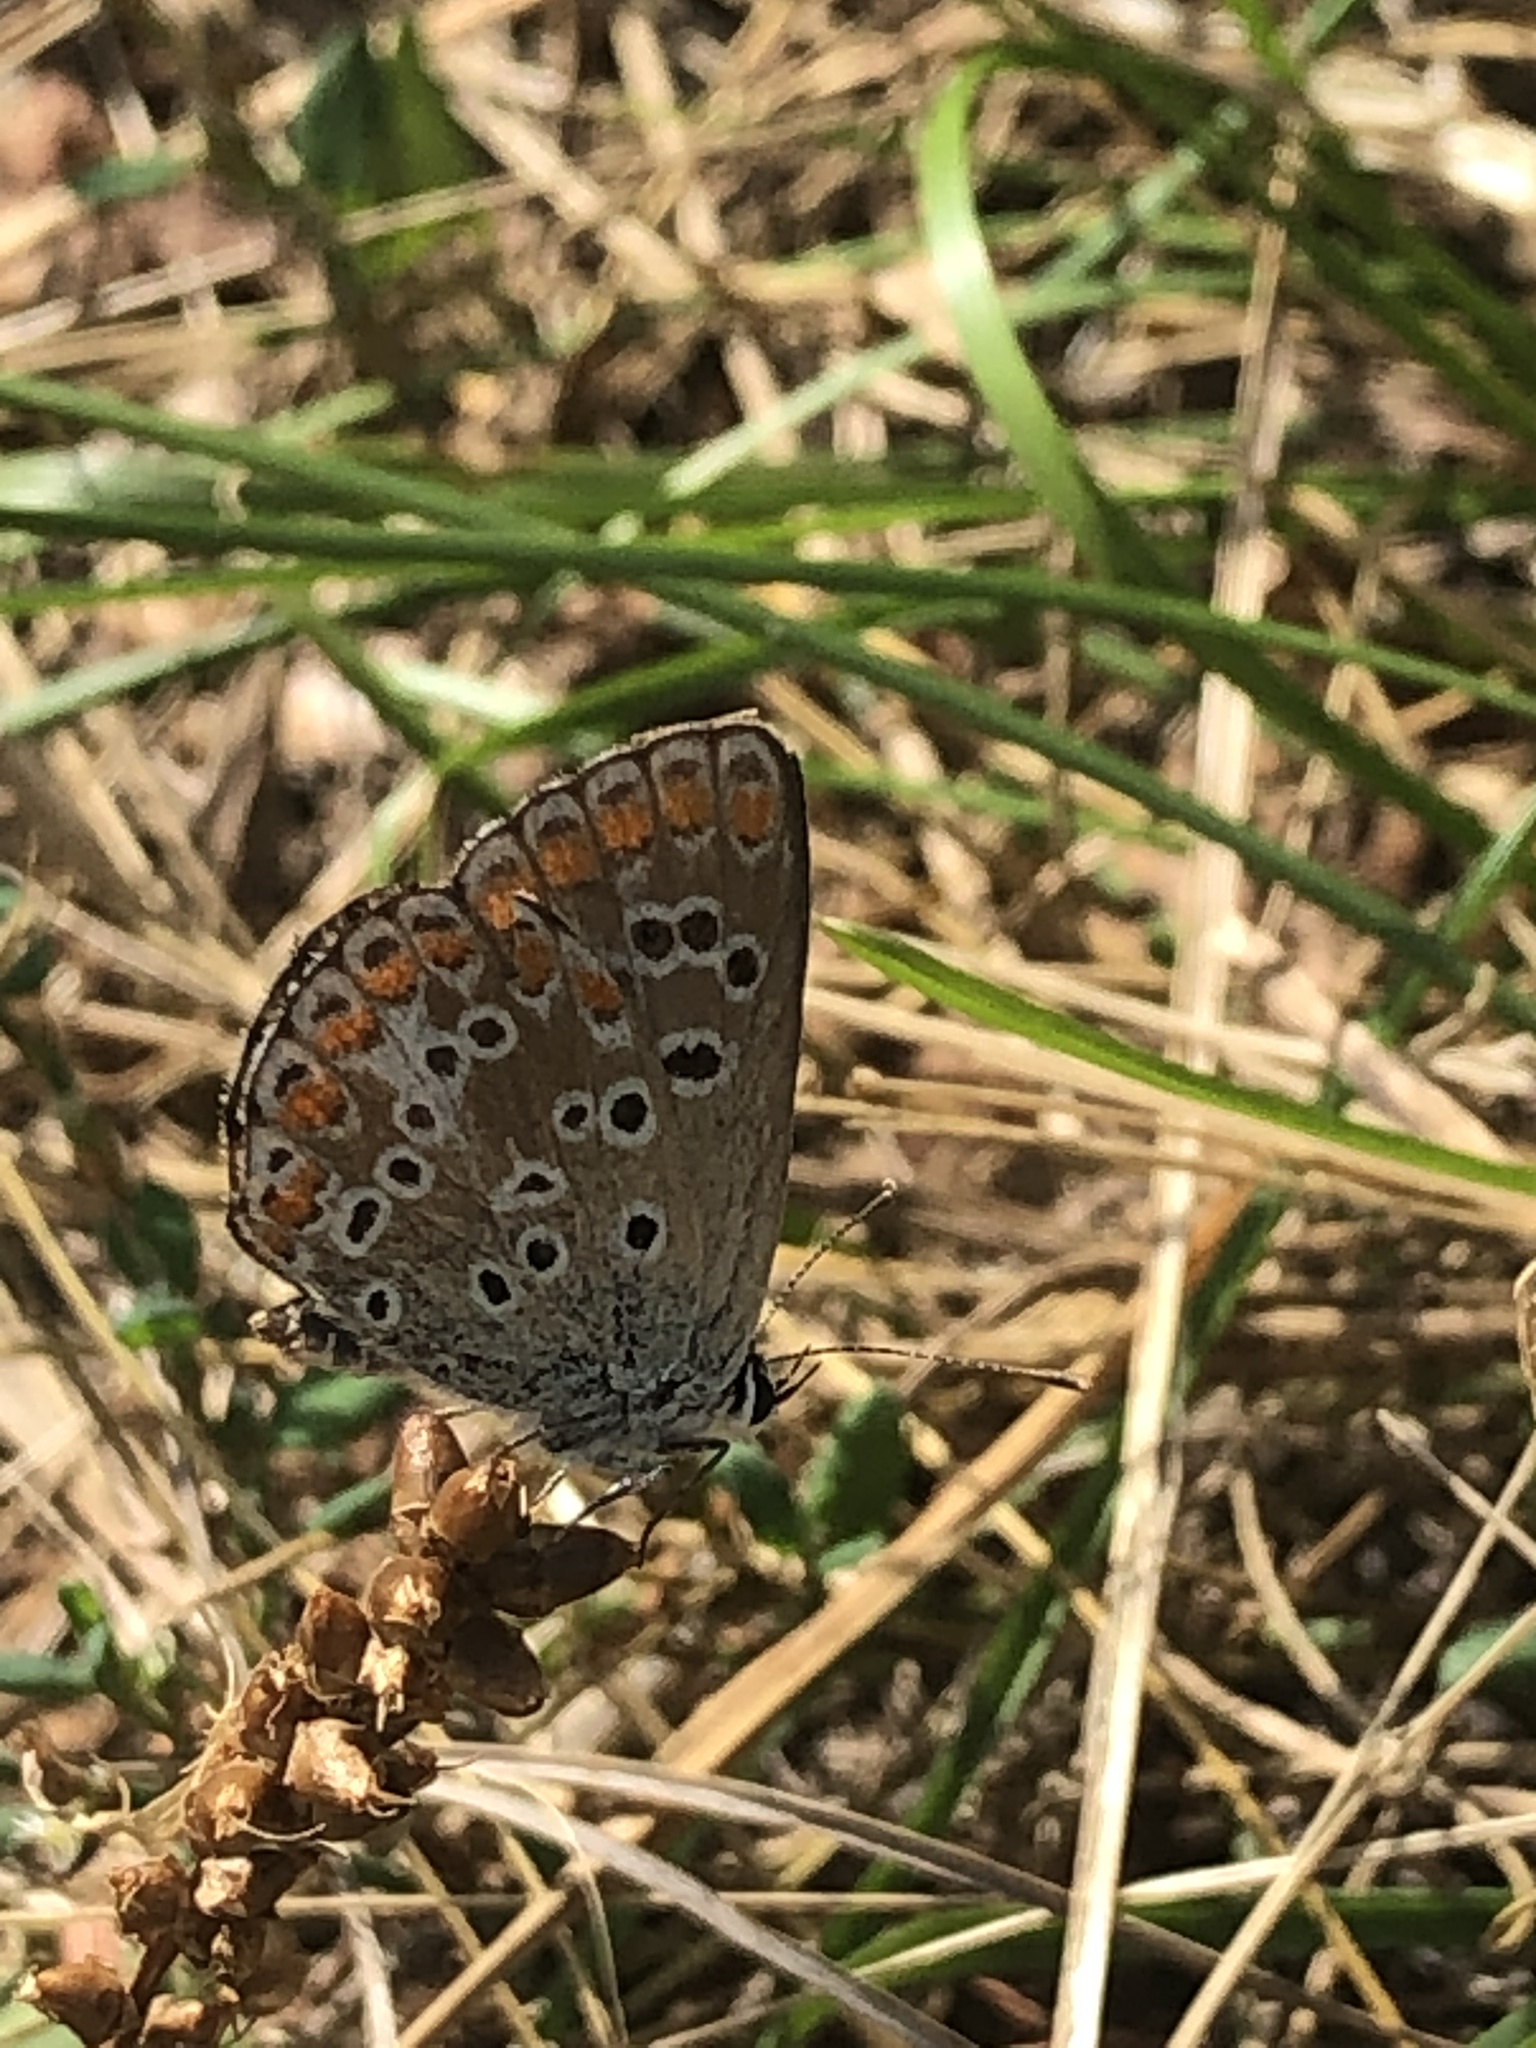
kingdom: Animalia
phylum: Arthropoda
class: Insecta
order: Lepidoptera
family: Lycaenidae
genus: Aricia
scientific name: Aricia agestis
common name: Brown argus
